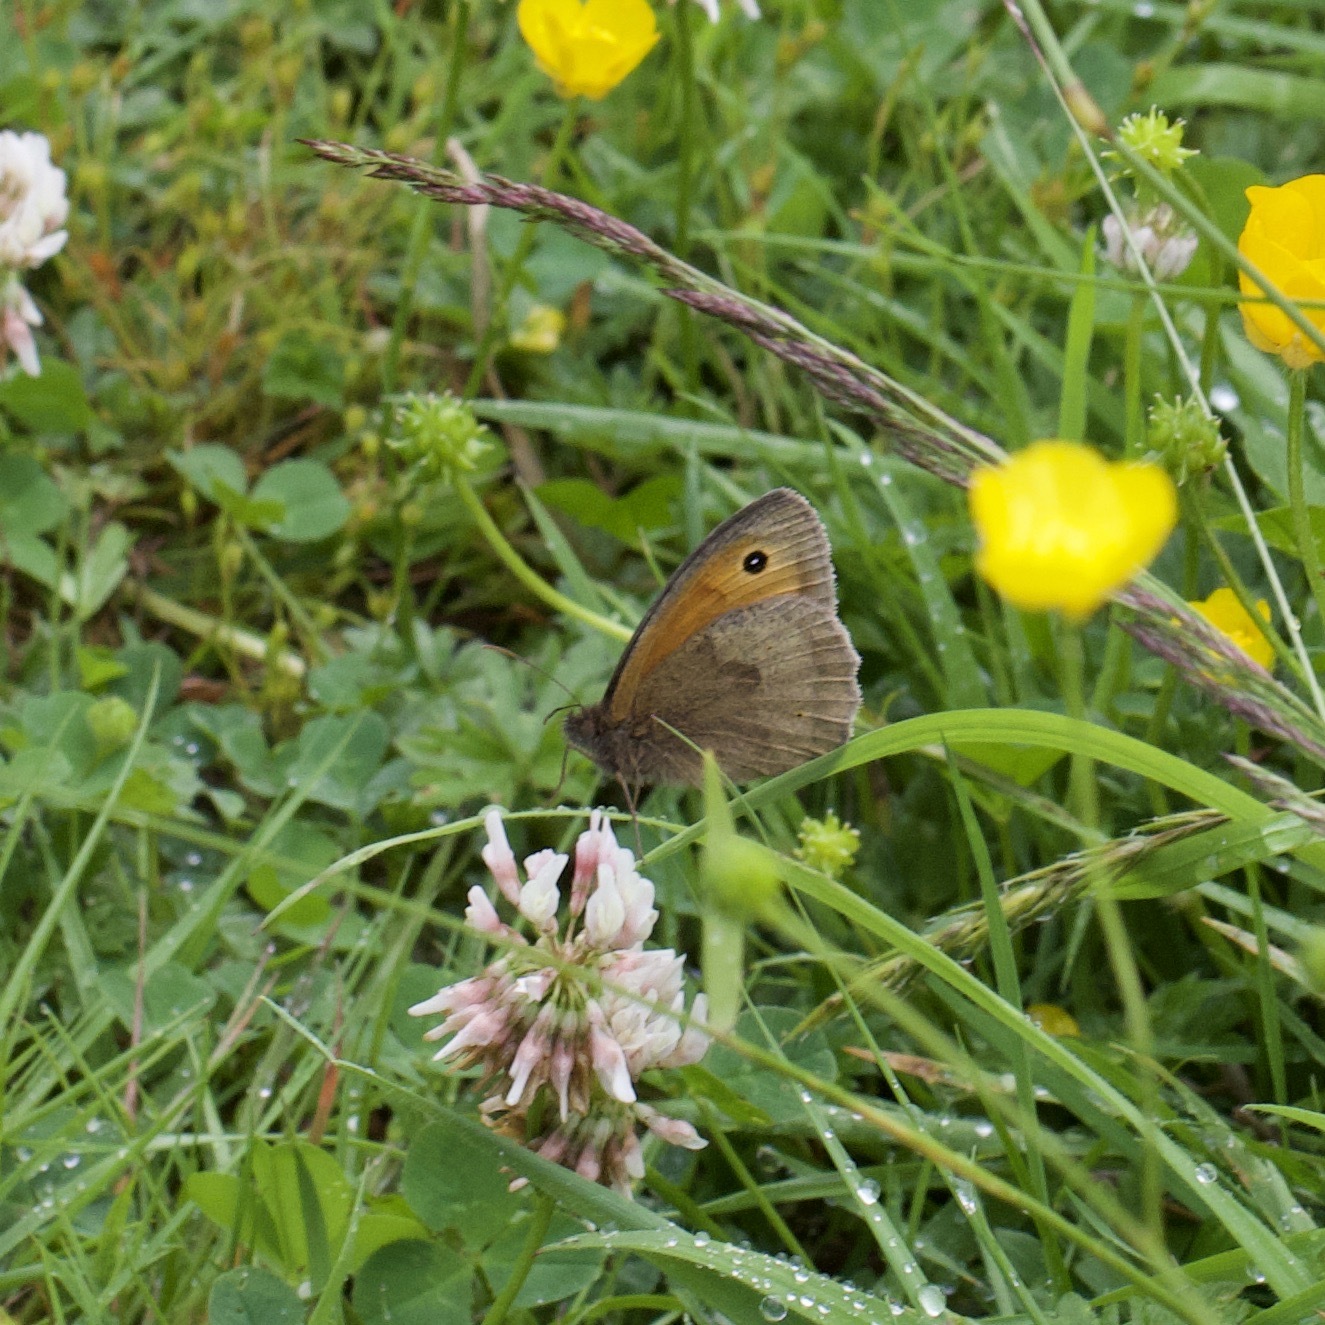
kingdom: Animalia
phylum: Arthropoda
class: Insecta
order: Lepidoptera
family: Nymphalidae
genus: Maniola
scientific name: Maniola jurtina
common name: Meadow brown
